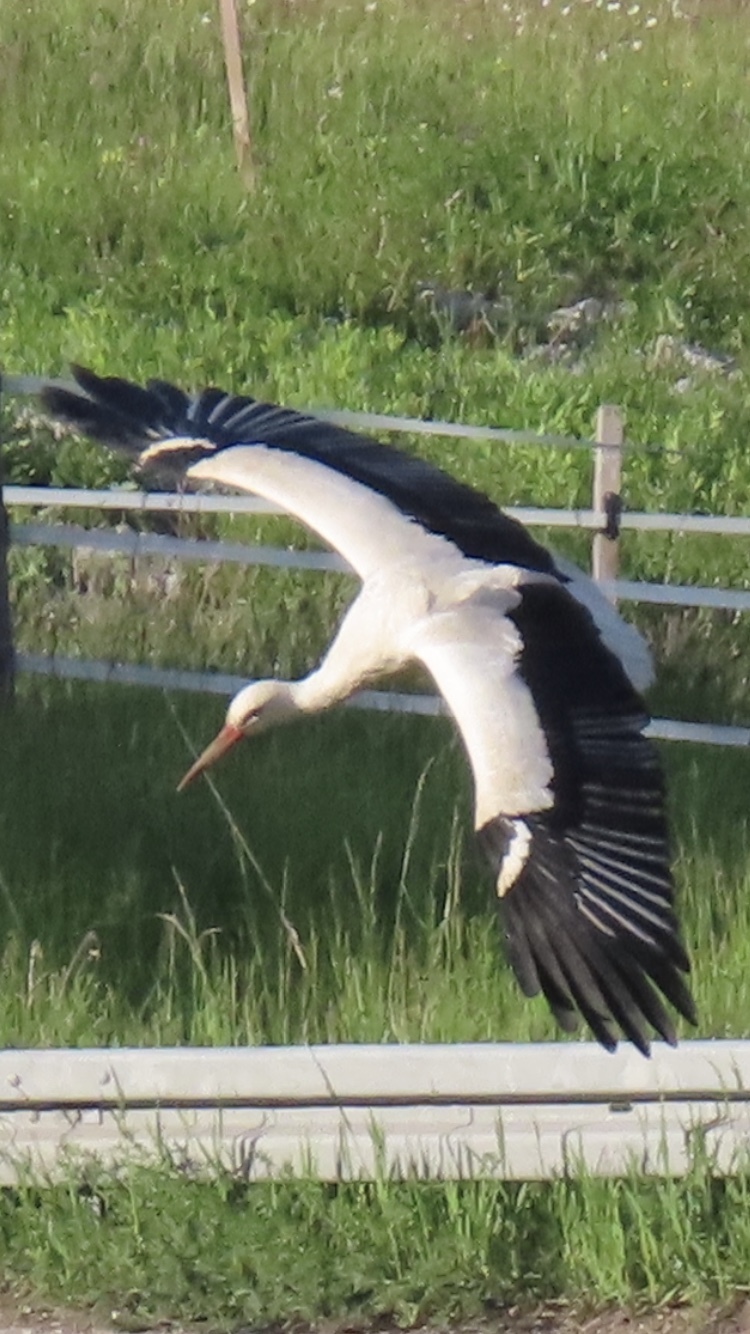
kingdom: Animalia
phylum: Chordata
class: Aves
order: Ciconiiformes
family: Ciconiidae
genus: Ciconia
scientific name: Ciconia ciconia
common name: White stork
